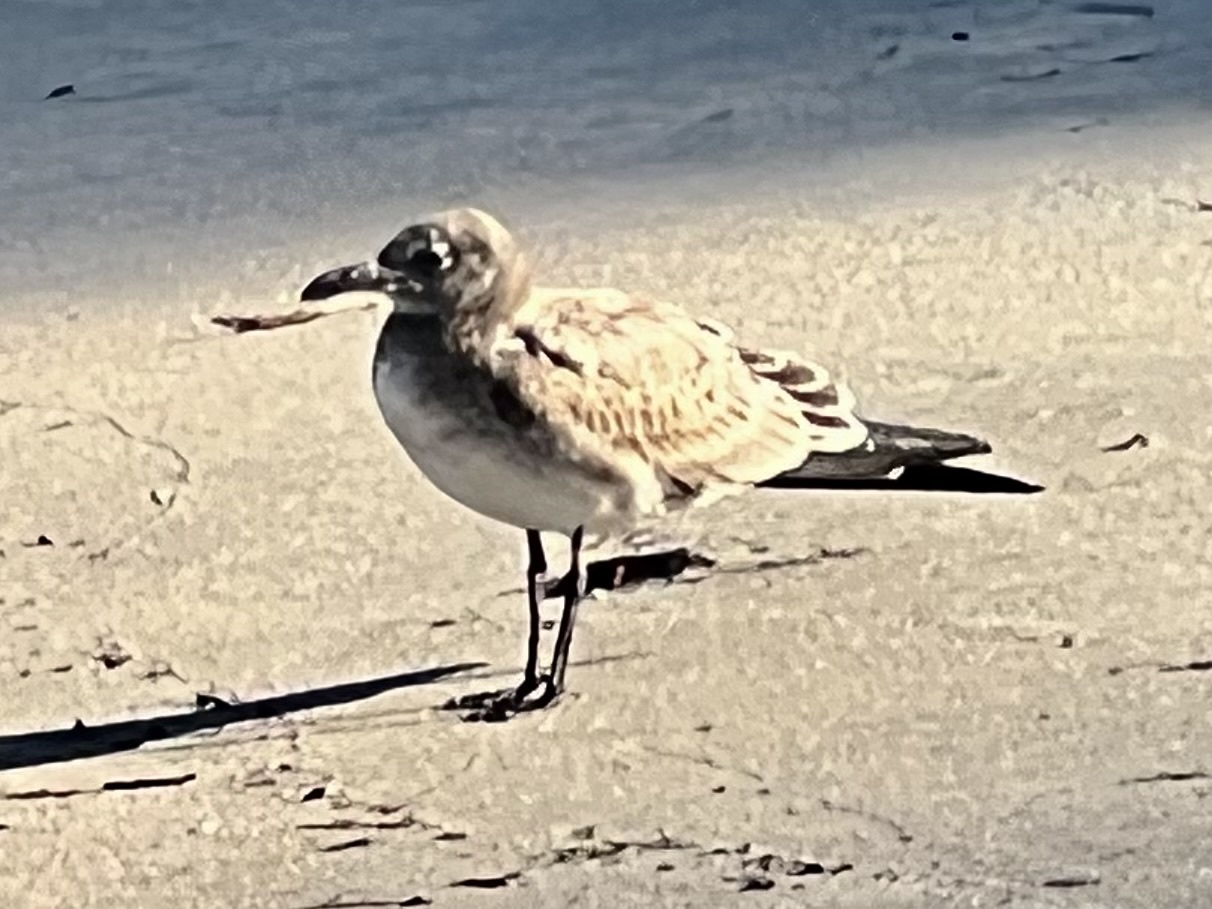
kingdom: Animalia
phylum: Chordata
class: Aves
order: Charadriiformes
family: Laridae
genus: Leucophaeus
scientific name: Leucophaeus atricilla
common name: Laughing gull
